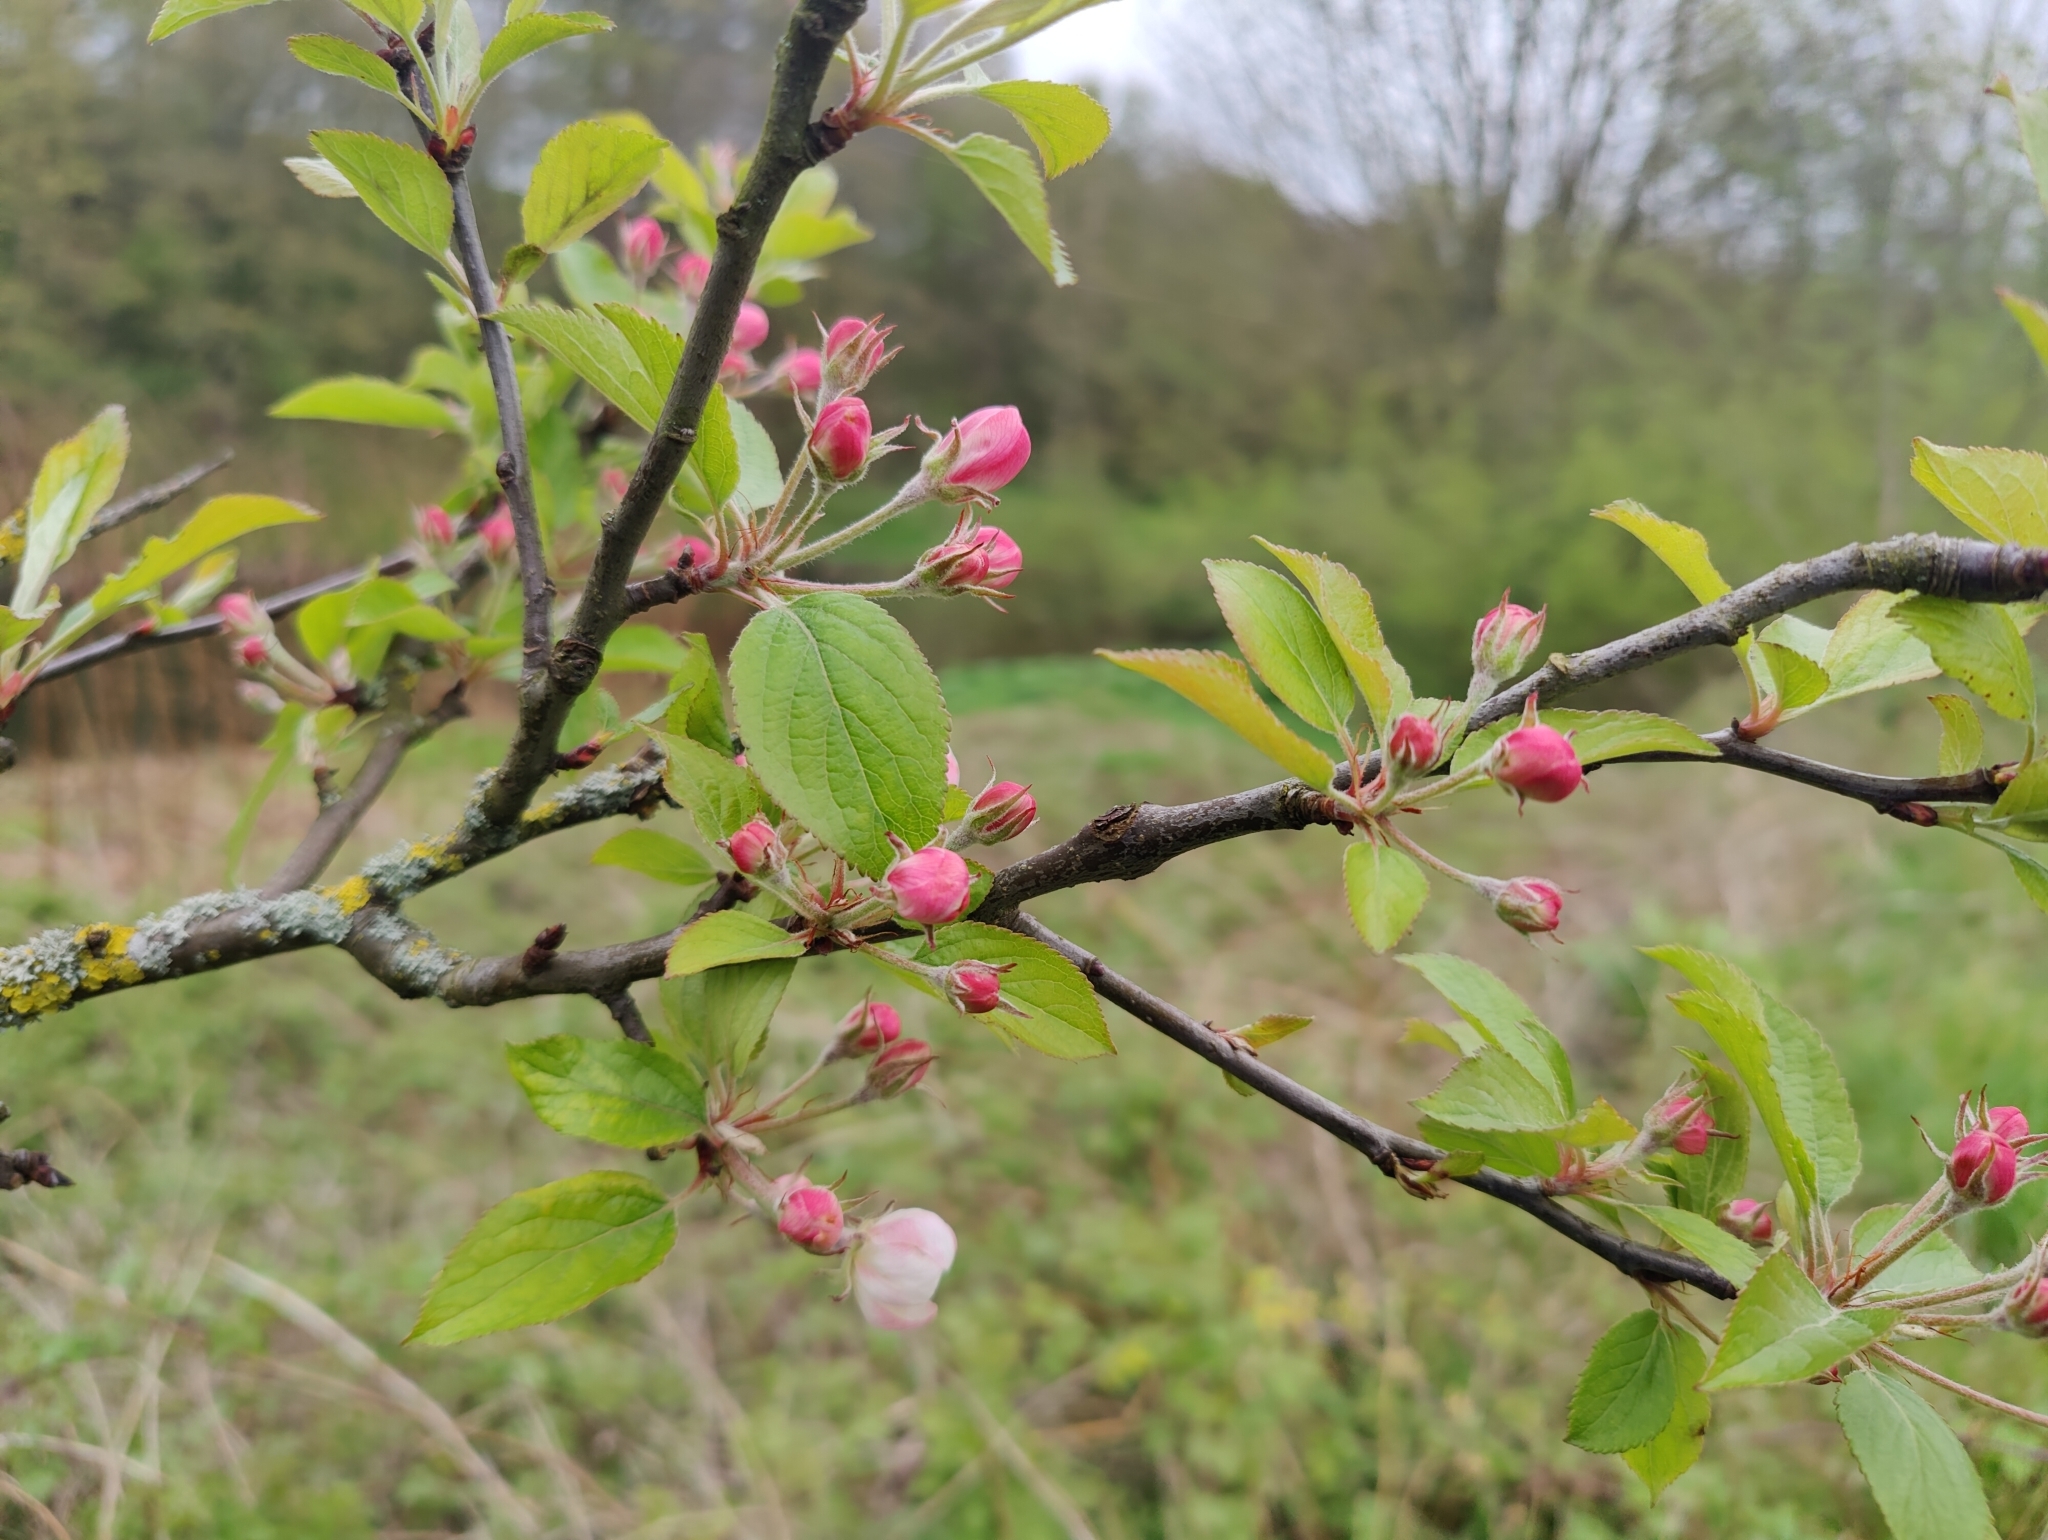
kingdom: Plantae
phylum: Tracheophyta
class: Magnoliopsida
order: Rosales
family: Rosaceae
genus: Malus
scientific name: Malus domestica
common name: Apple
